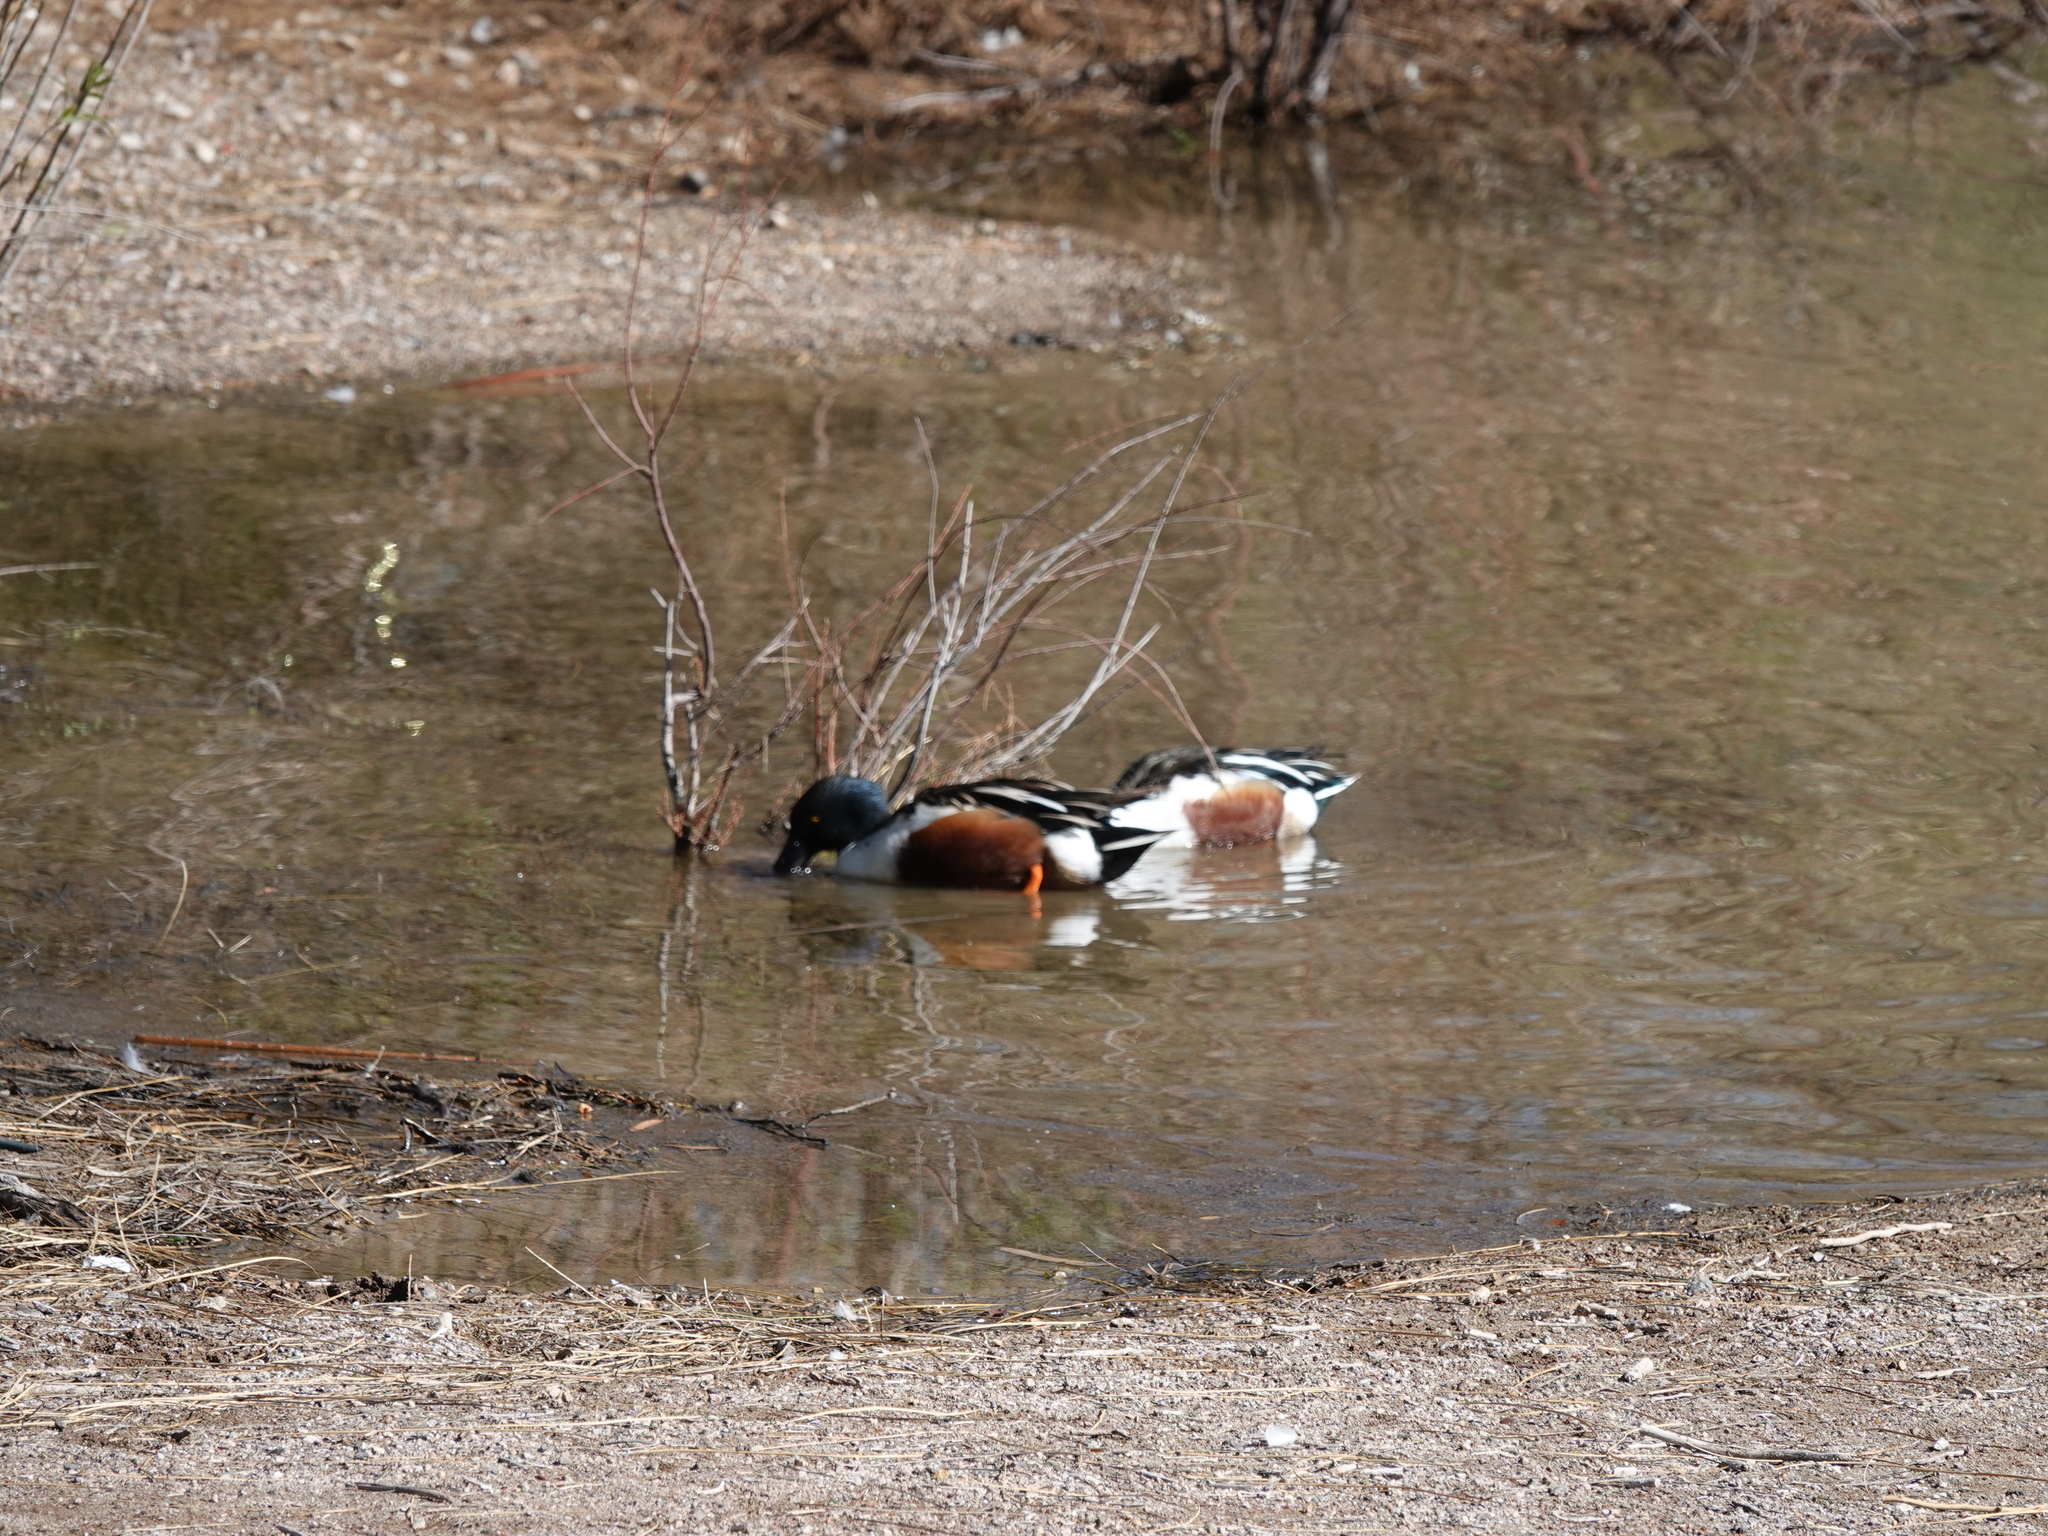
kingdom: Animalia
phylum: Chordata
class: Aves
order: Anseriformes
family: Anatidae
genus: Spatula
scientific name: Spatula clypeata
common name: Northern shoveler
